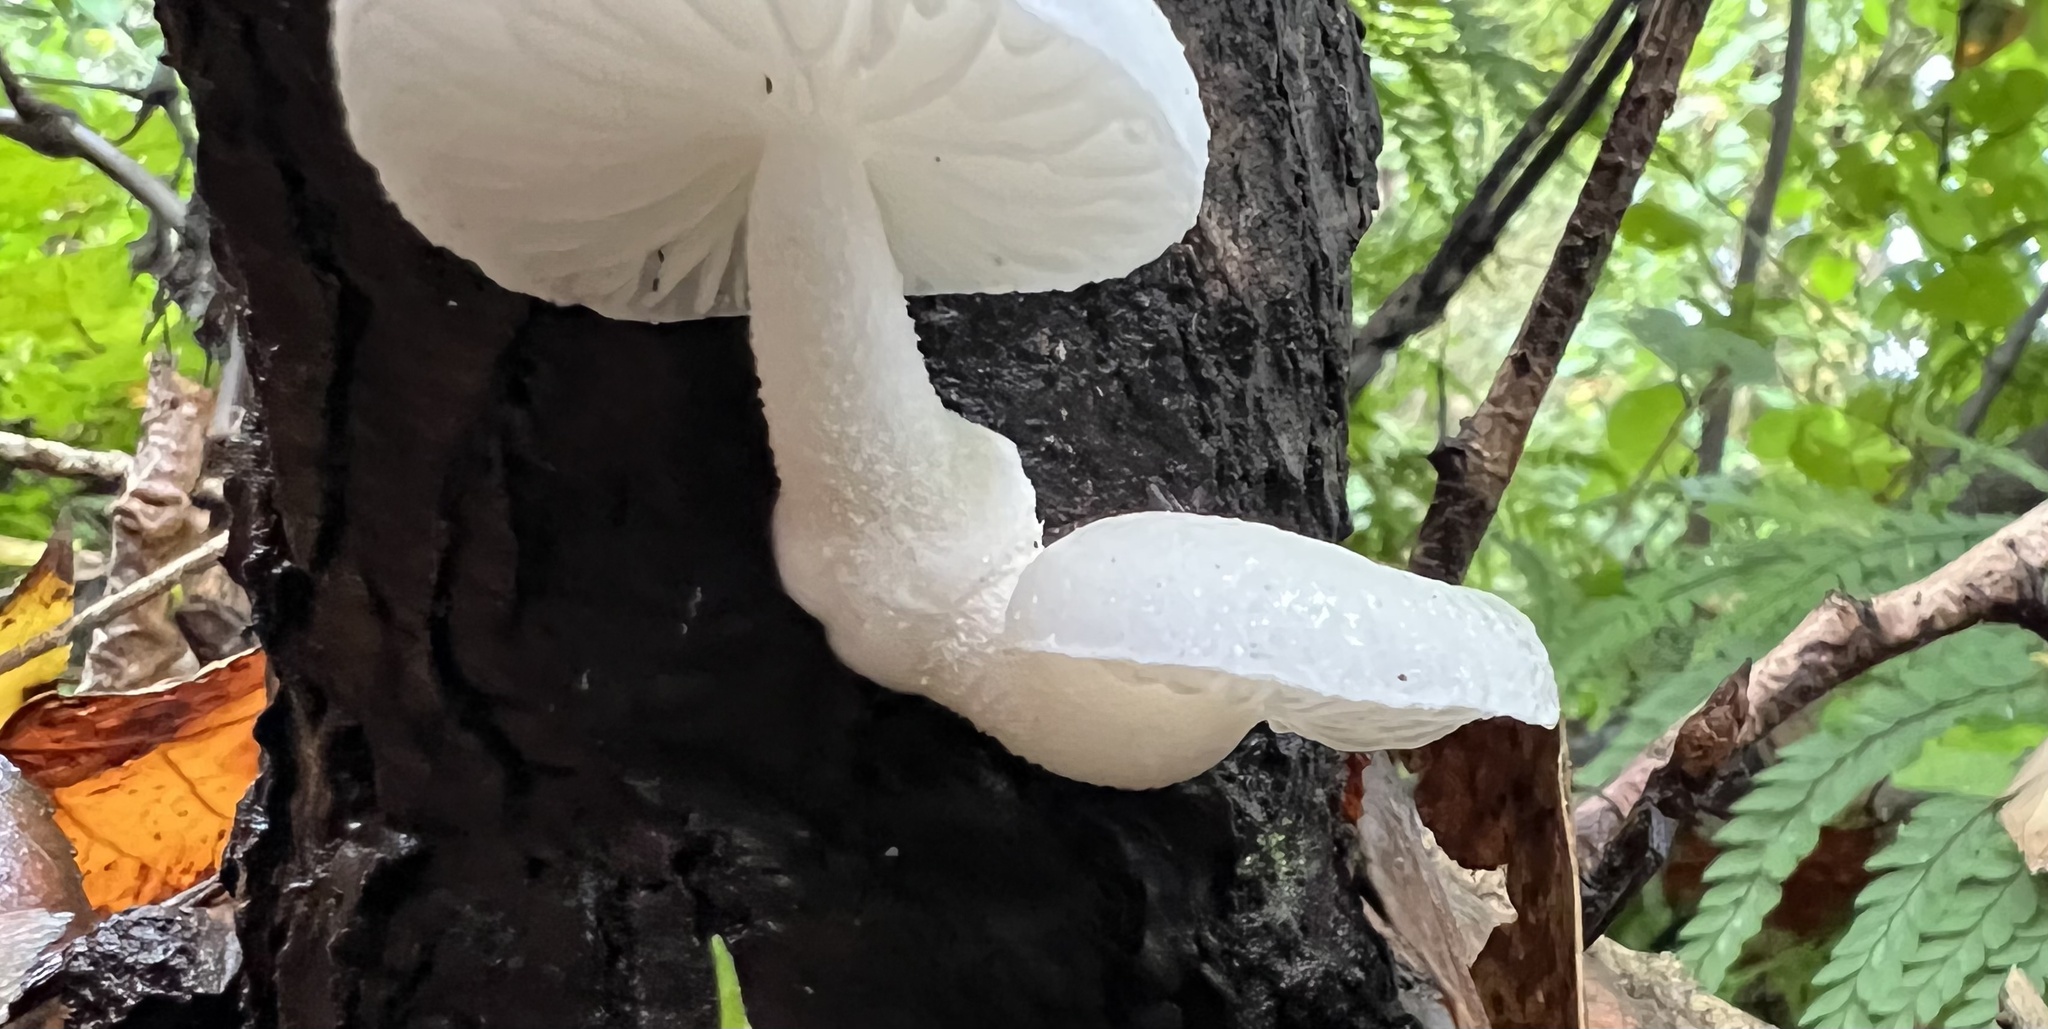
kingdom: Fungi
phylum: Basidiomycota
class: Agaricomycetes
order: Agaricales
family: Physalacriaceae
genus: Oudemansiella
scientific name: Oudemansiella australis
